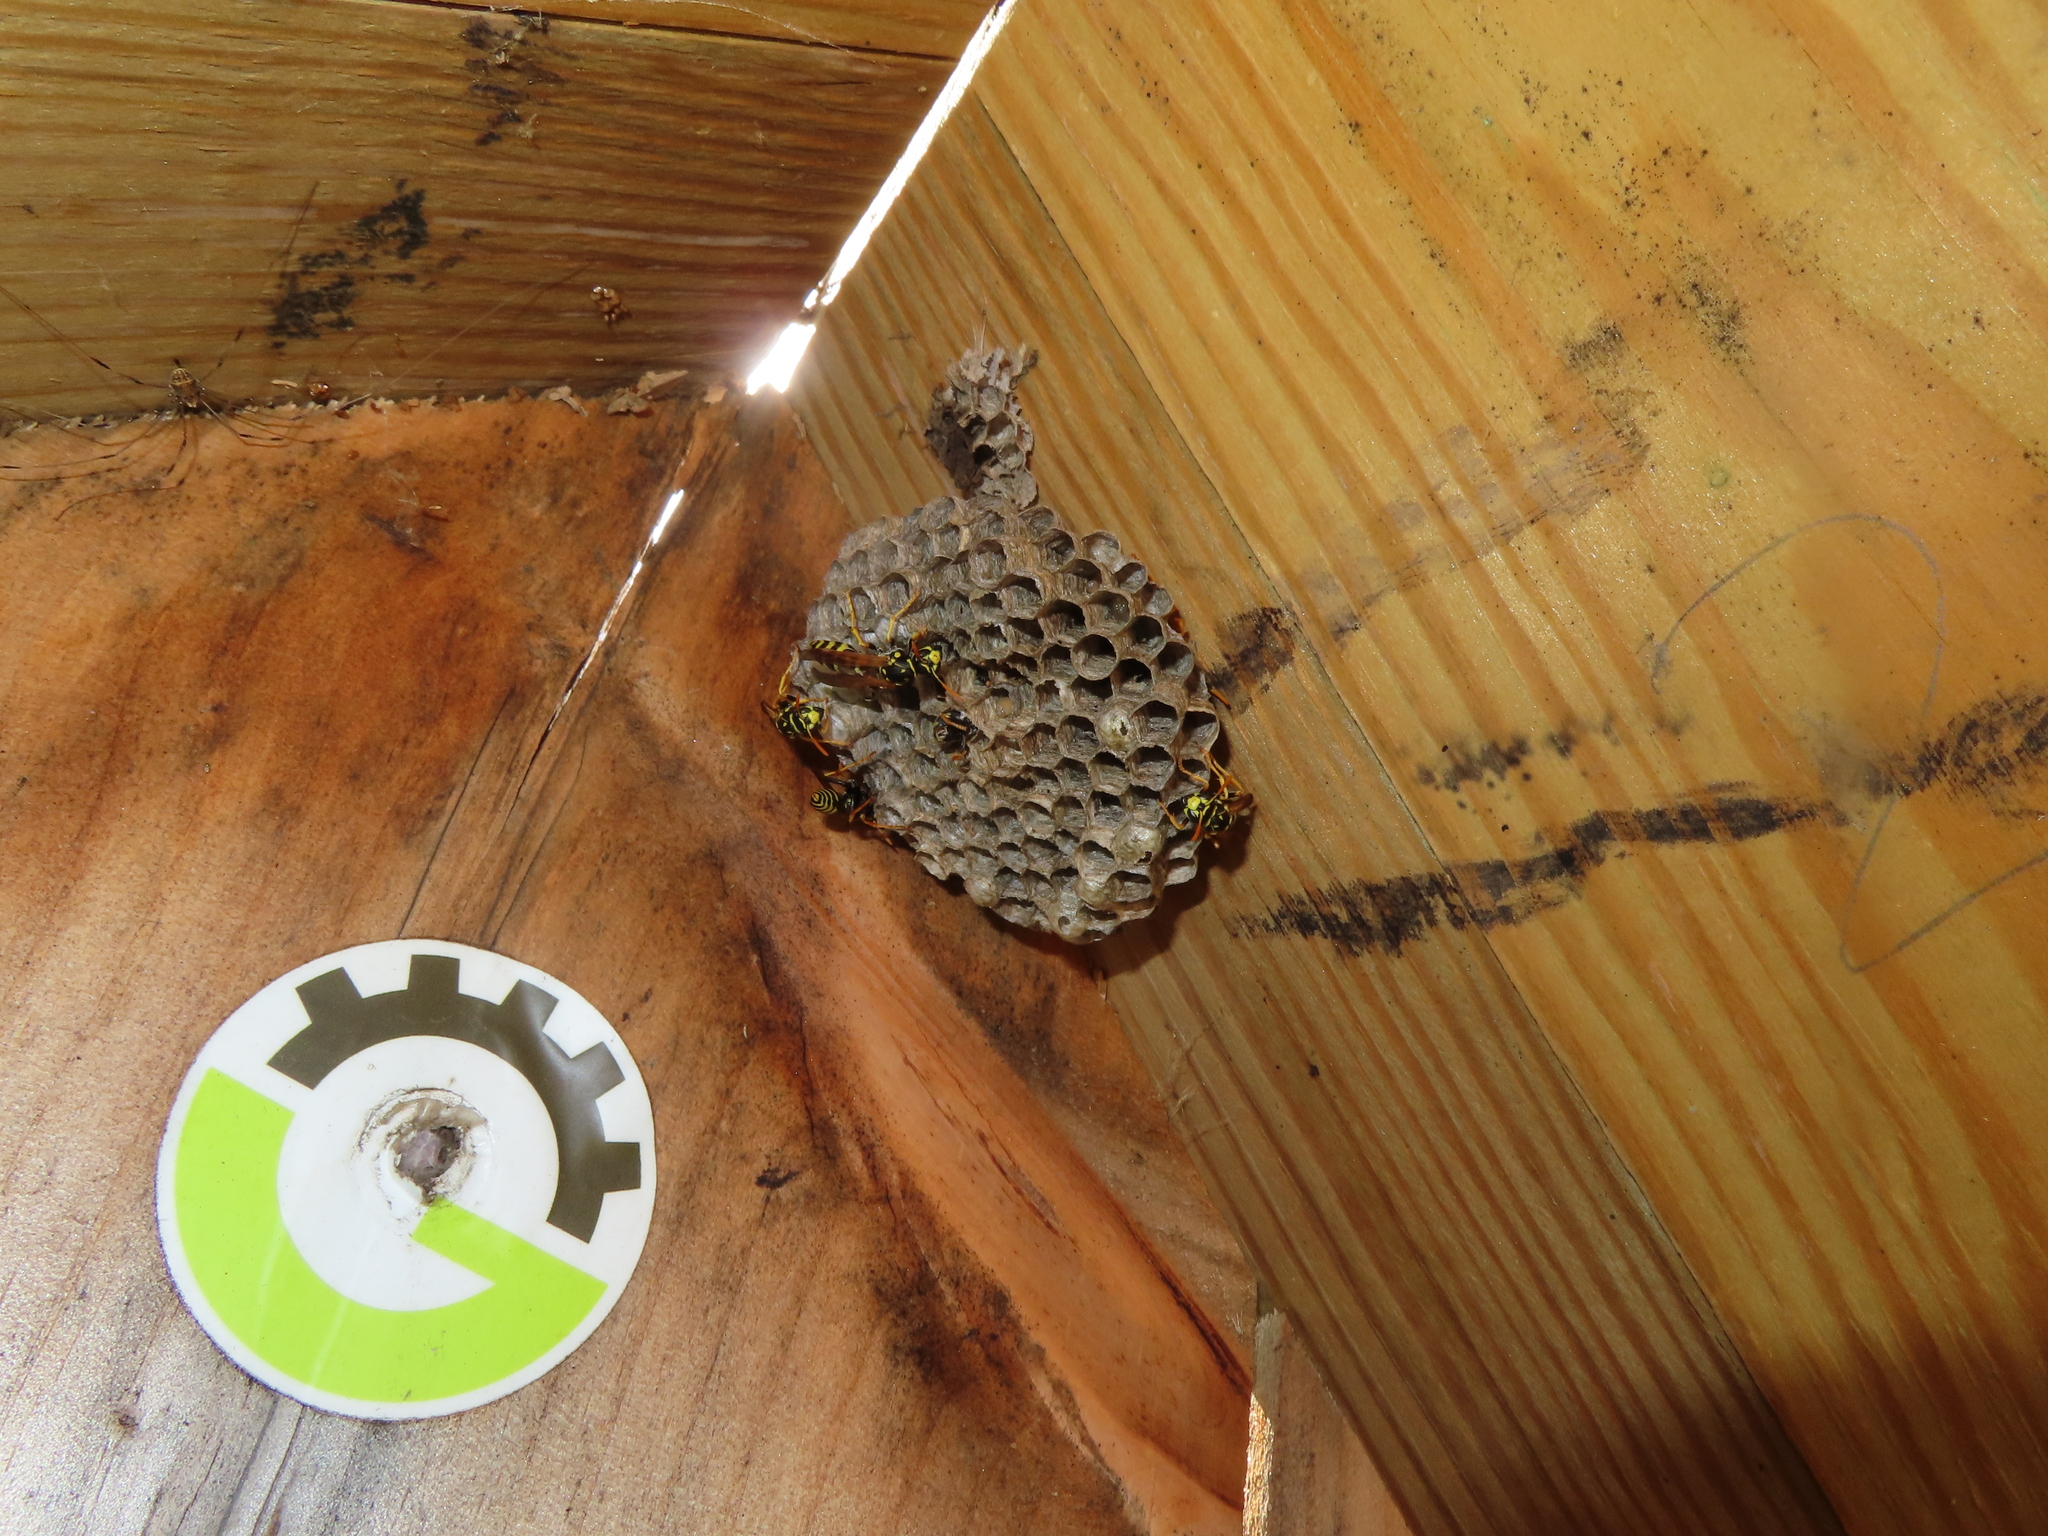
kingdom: Animalia
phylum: Arthropoda
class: Insecta
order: Hymenoptera
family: Eumenidae
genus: Polistes
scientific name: Polistes dominula
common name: Paper wasp
